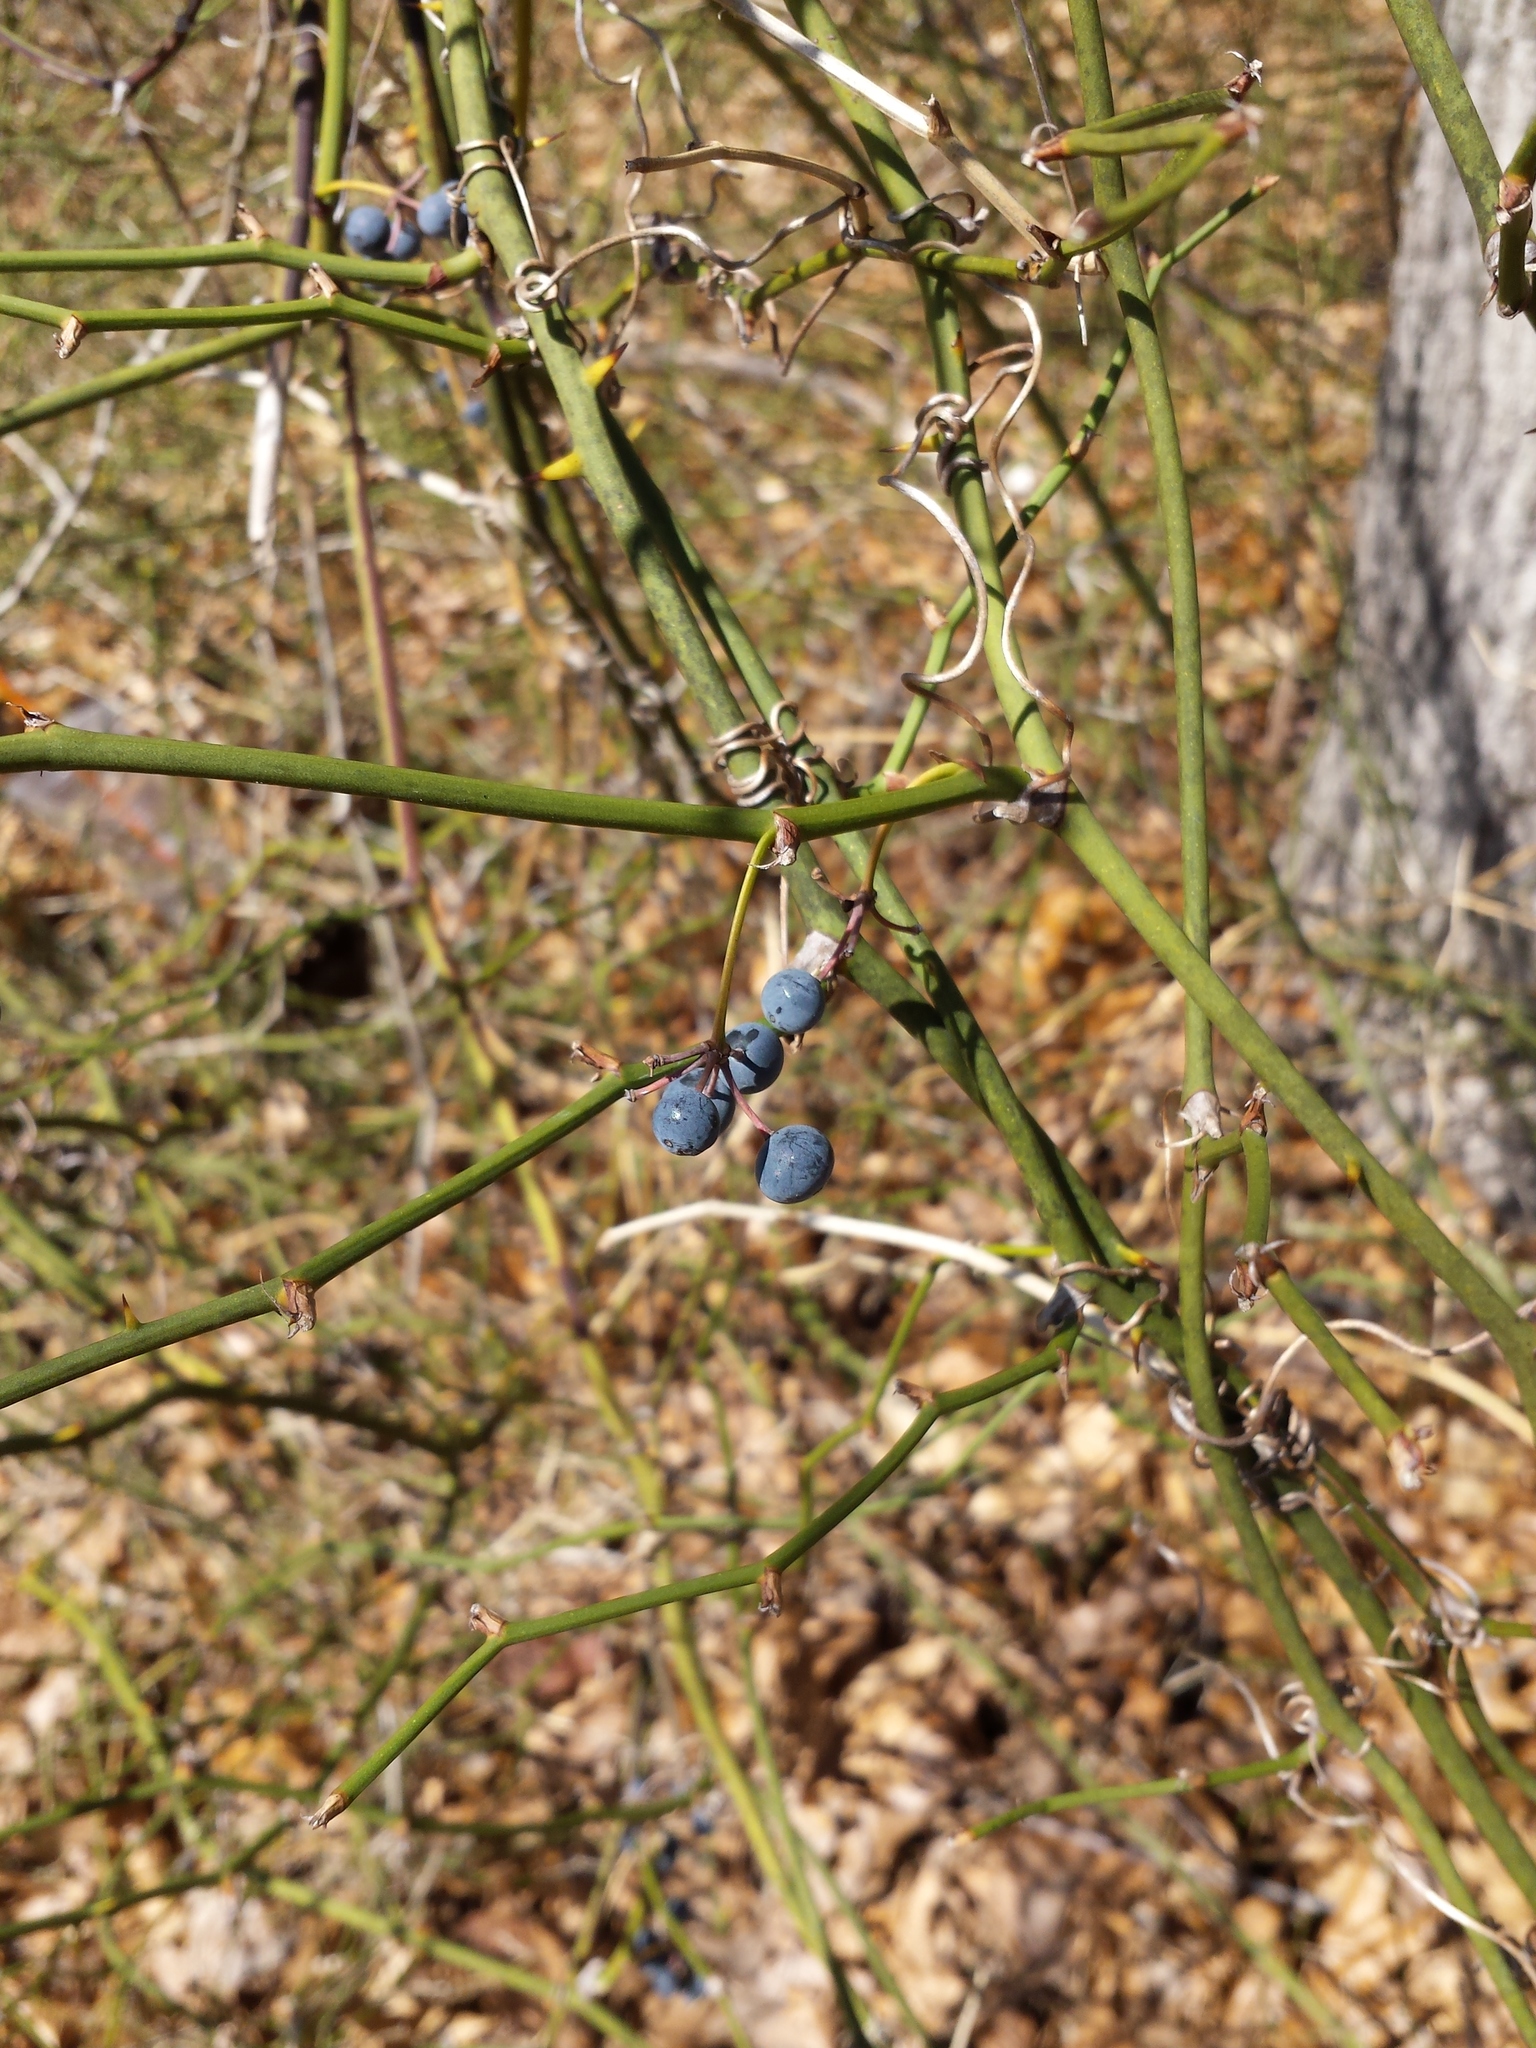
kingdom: Plantae
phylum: Tracheophyta
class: Liliopsida
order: Liliales
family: Smilacaceae
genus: Smilax
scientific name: Smilax rotundifolia
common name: Bullbriar
